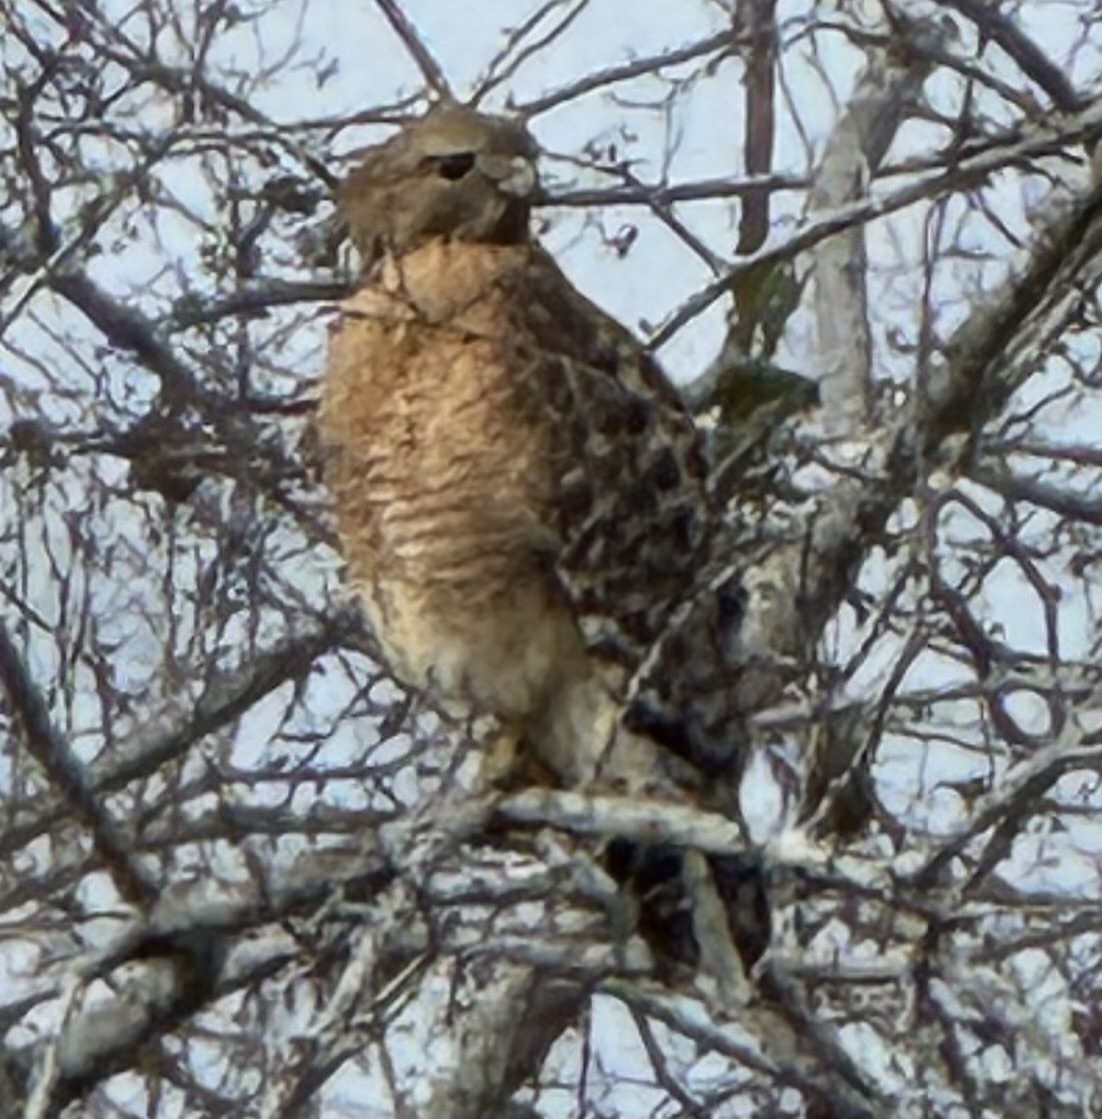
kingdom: Animalia
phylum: Chordata
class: Aves
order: Accipitriformes
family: Accipitridae
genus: Buteo
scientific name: Buteo lineatus
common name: Red-shouldered hawk
